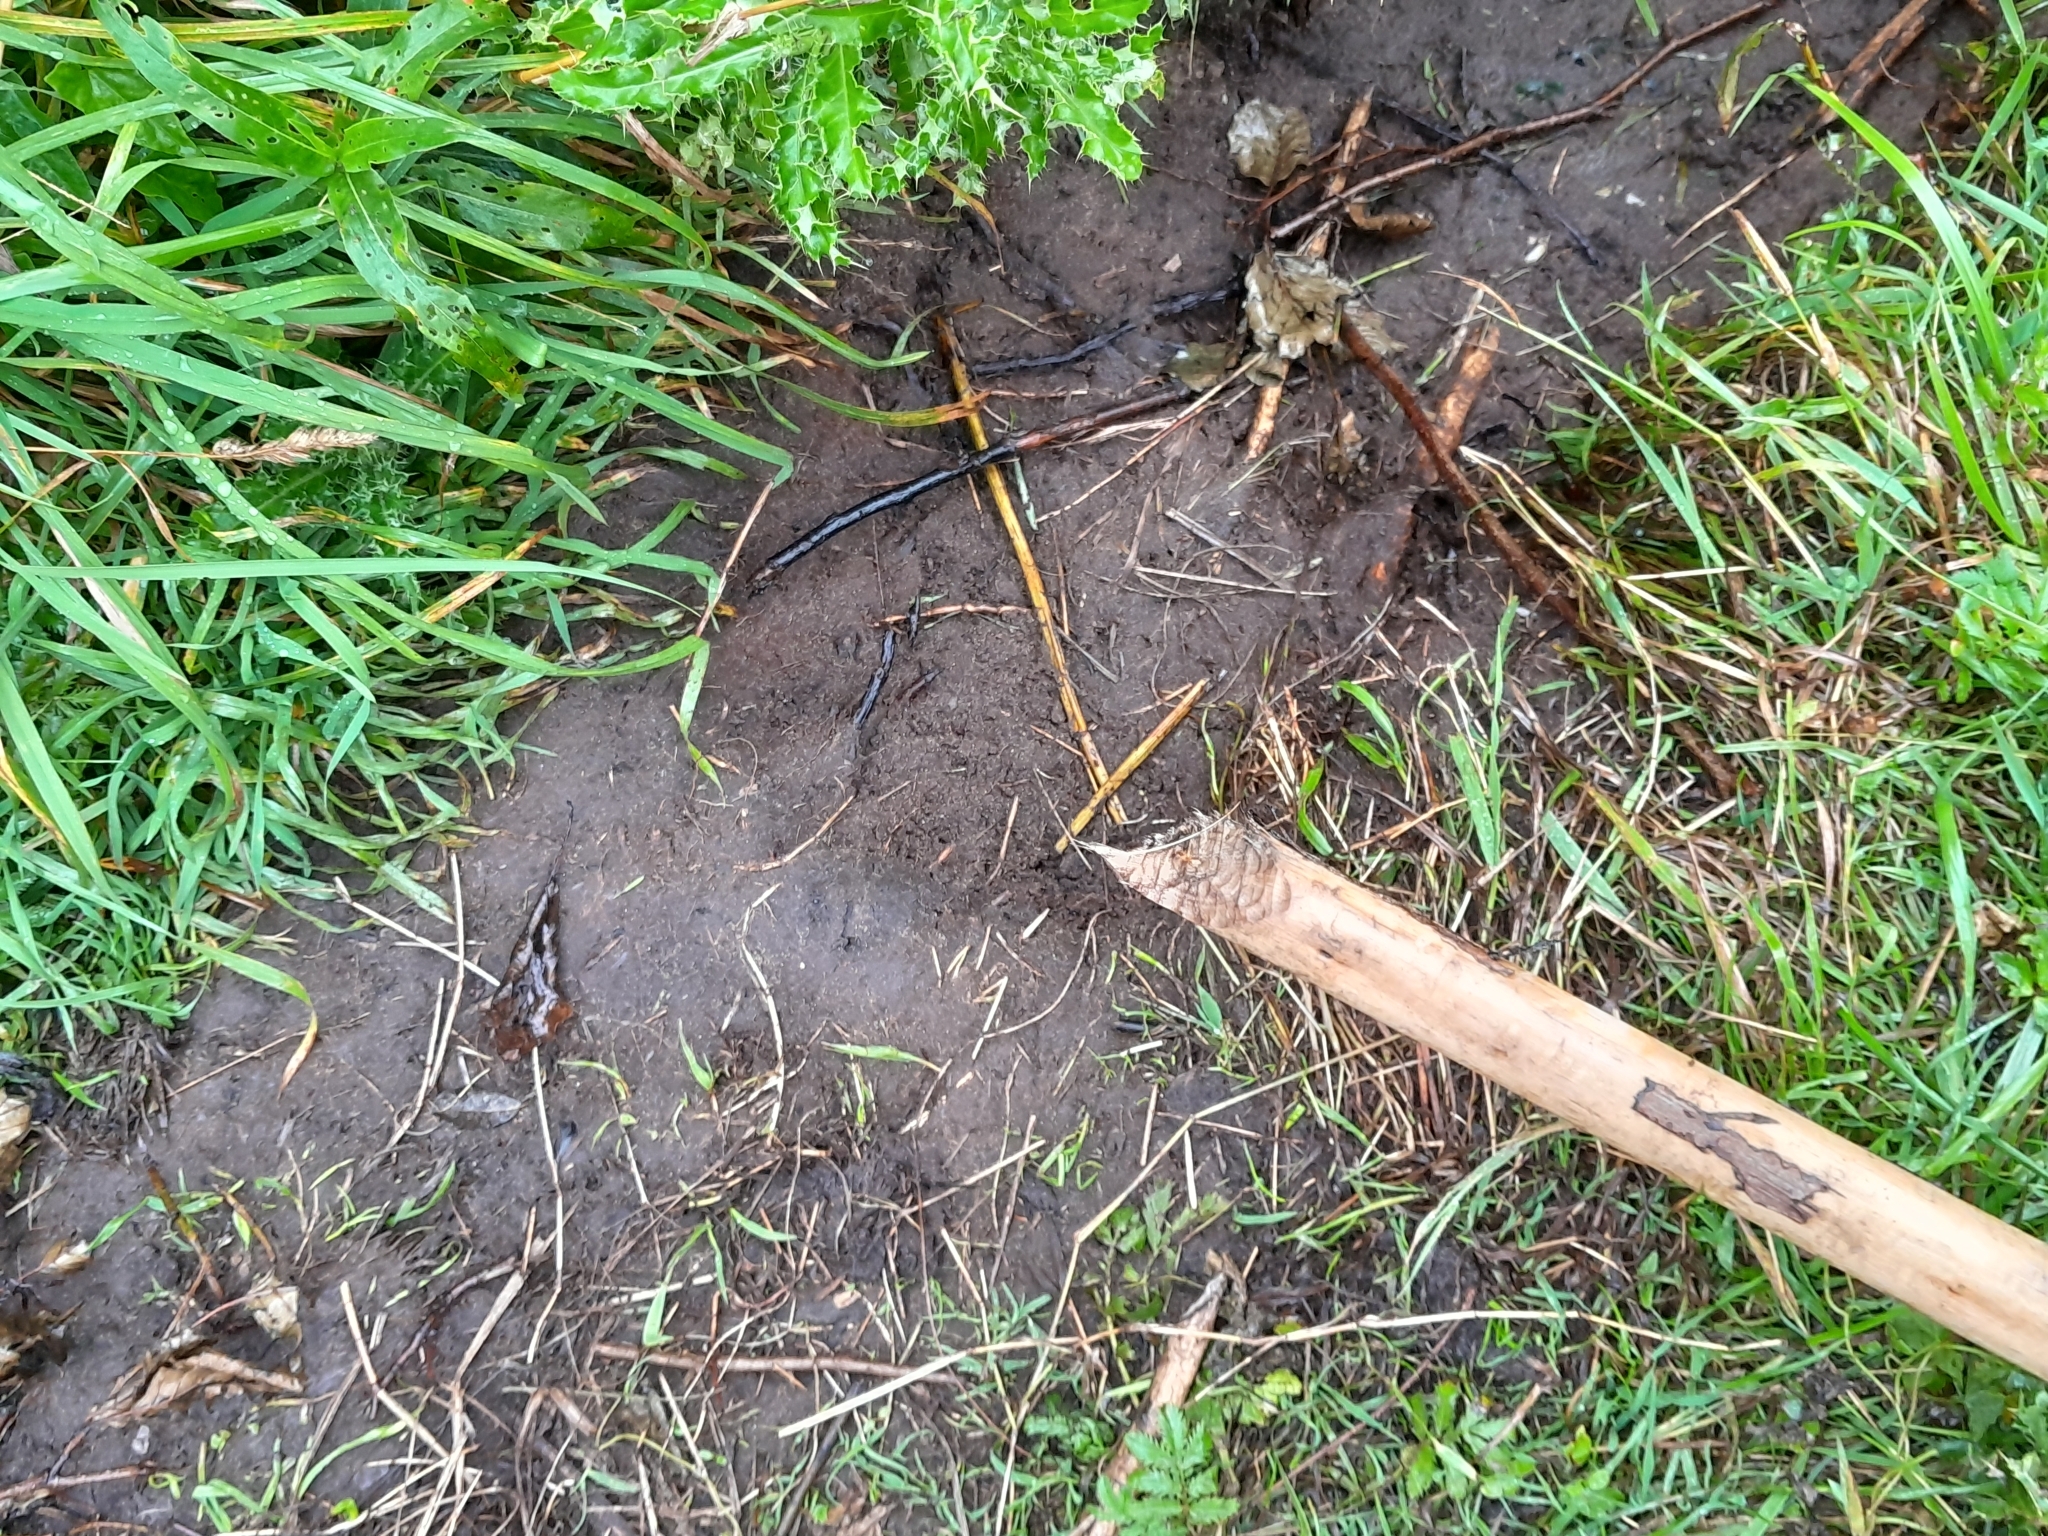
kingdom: Animalia
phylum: Chordata
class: Mammalia
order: Rodentia
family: Castoridae
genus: Castor
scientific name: Castor fiber
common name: Eurasian beaver
